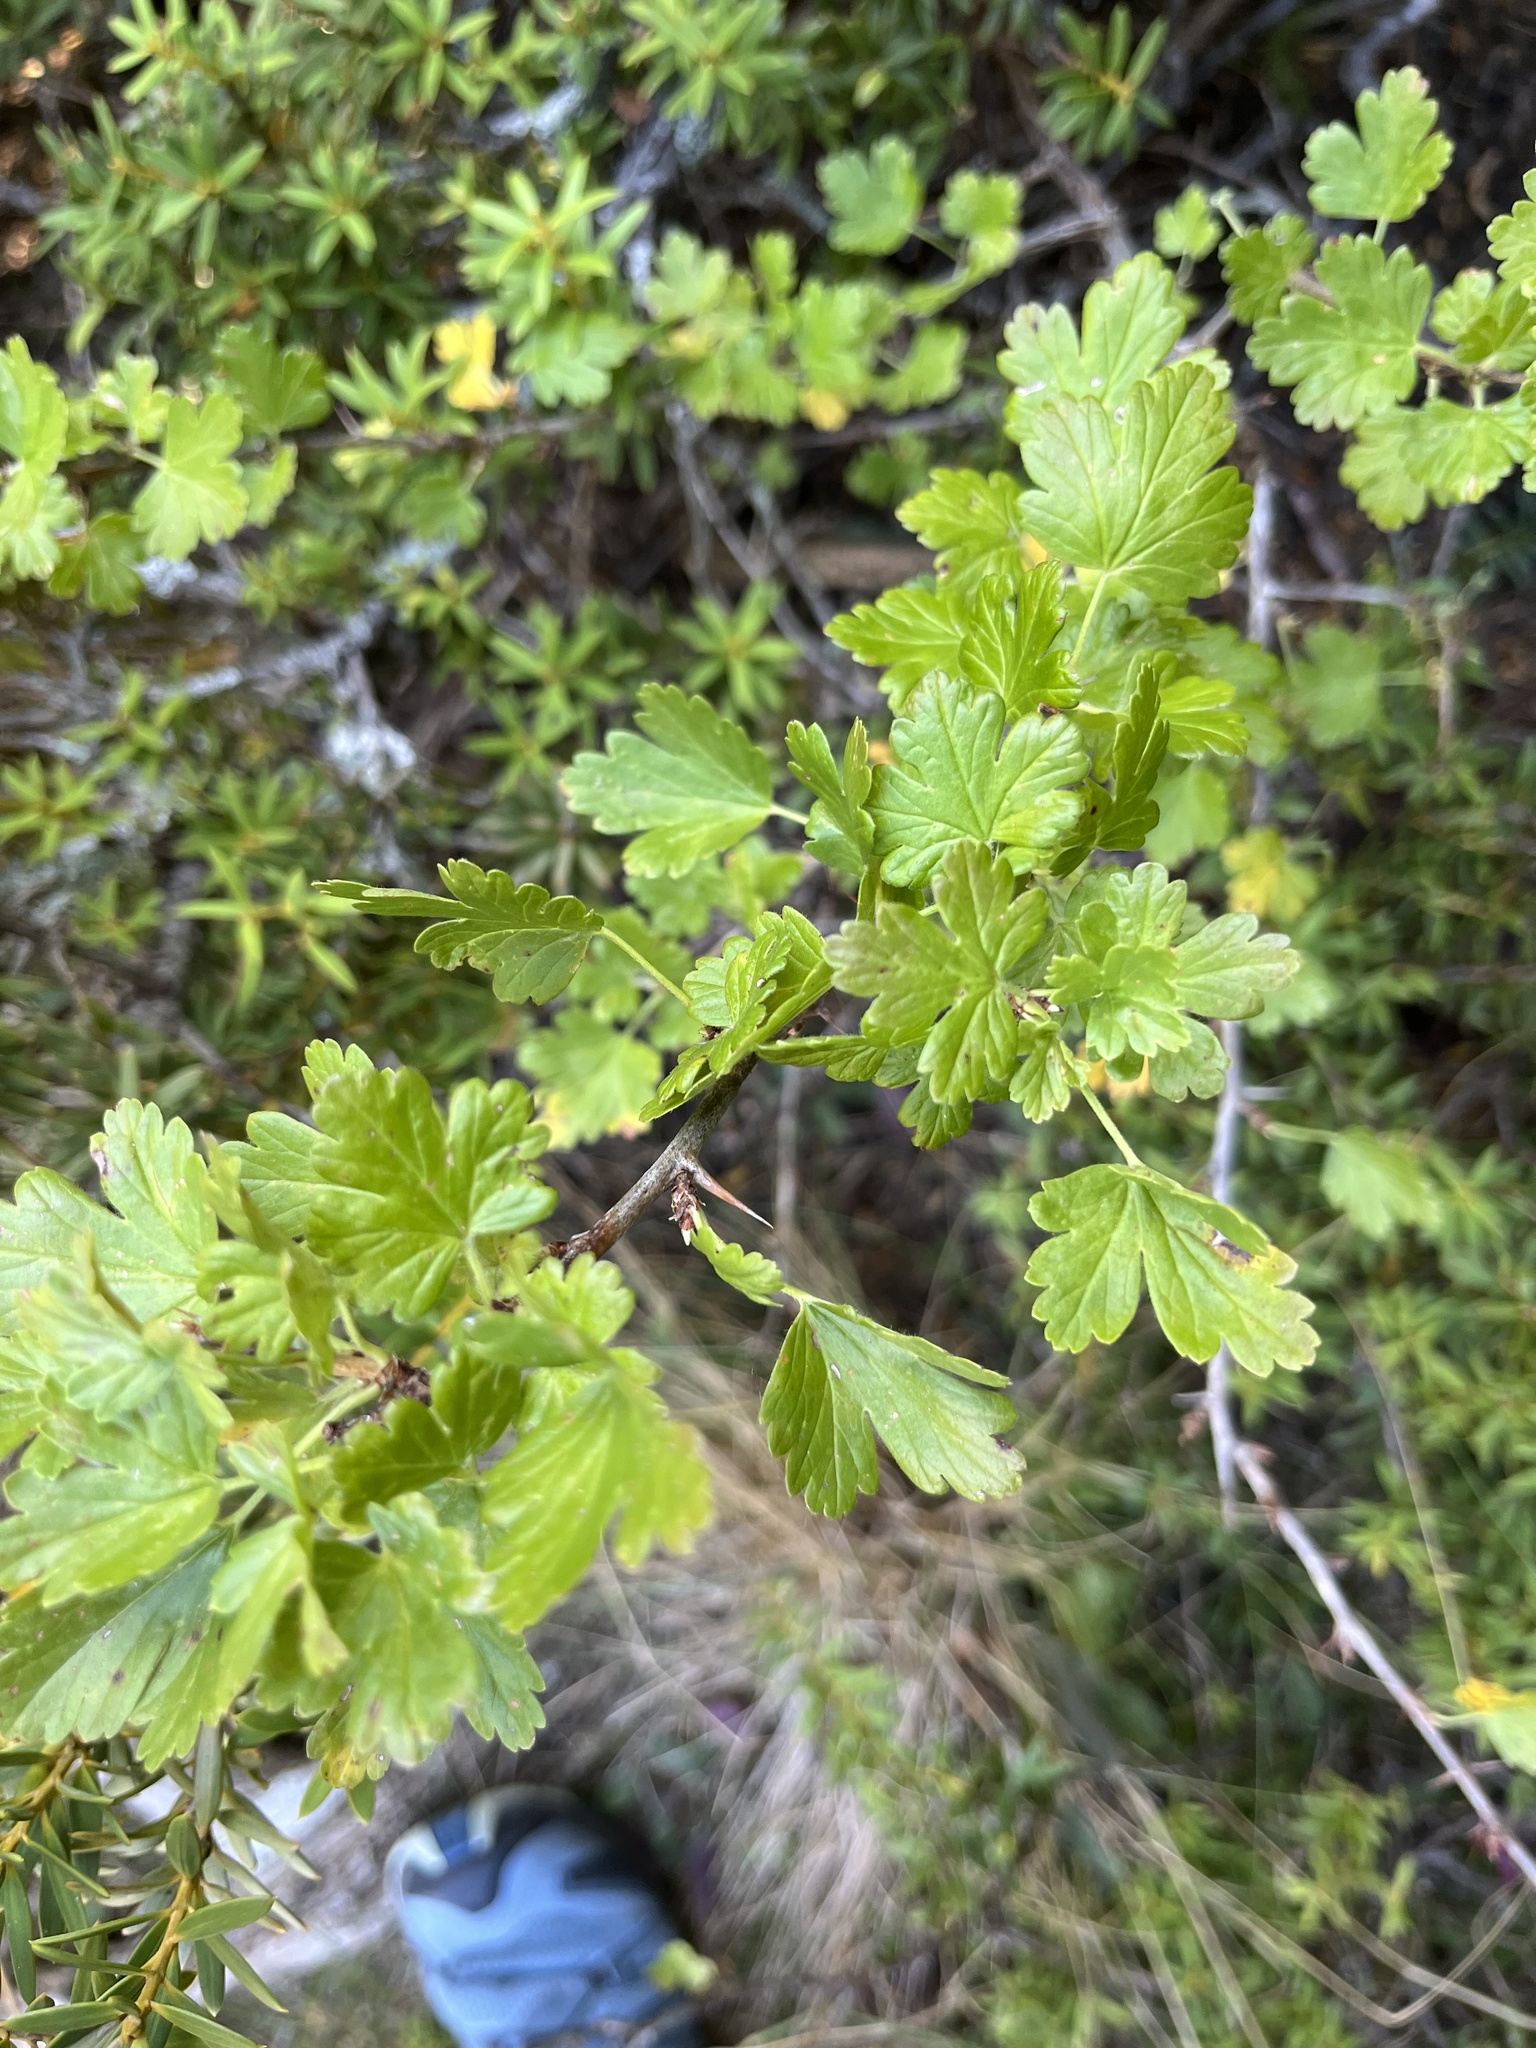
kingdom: Plantae
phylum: Tracheophyta
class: Magnoliopsida
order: Saxifragales
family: Grossulariaceae
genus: Ribes
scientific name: Ribes uva-crispa
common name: Gooseberry
